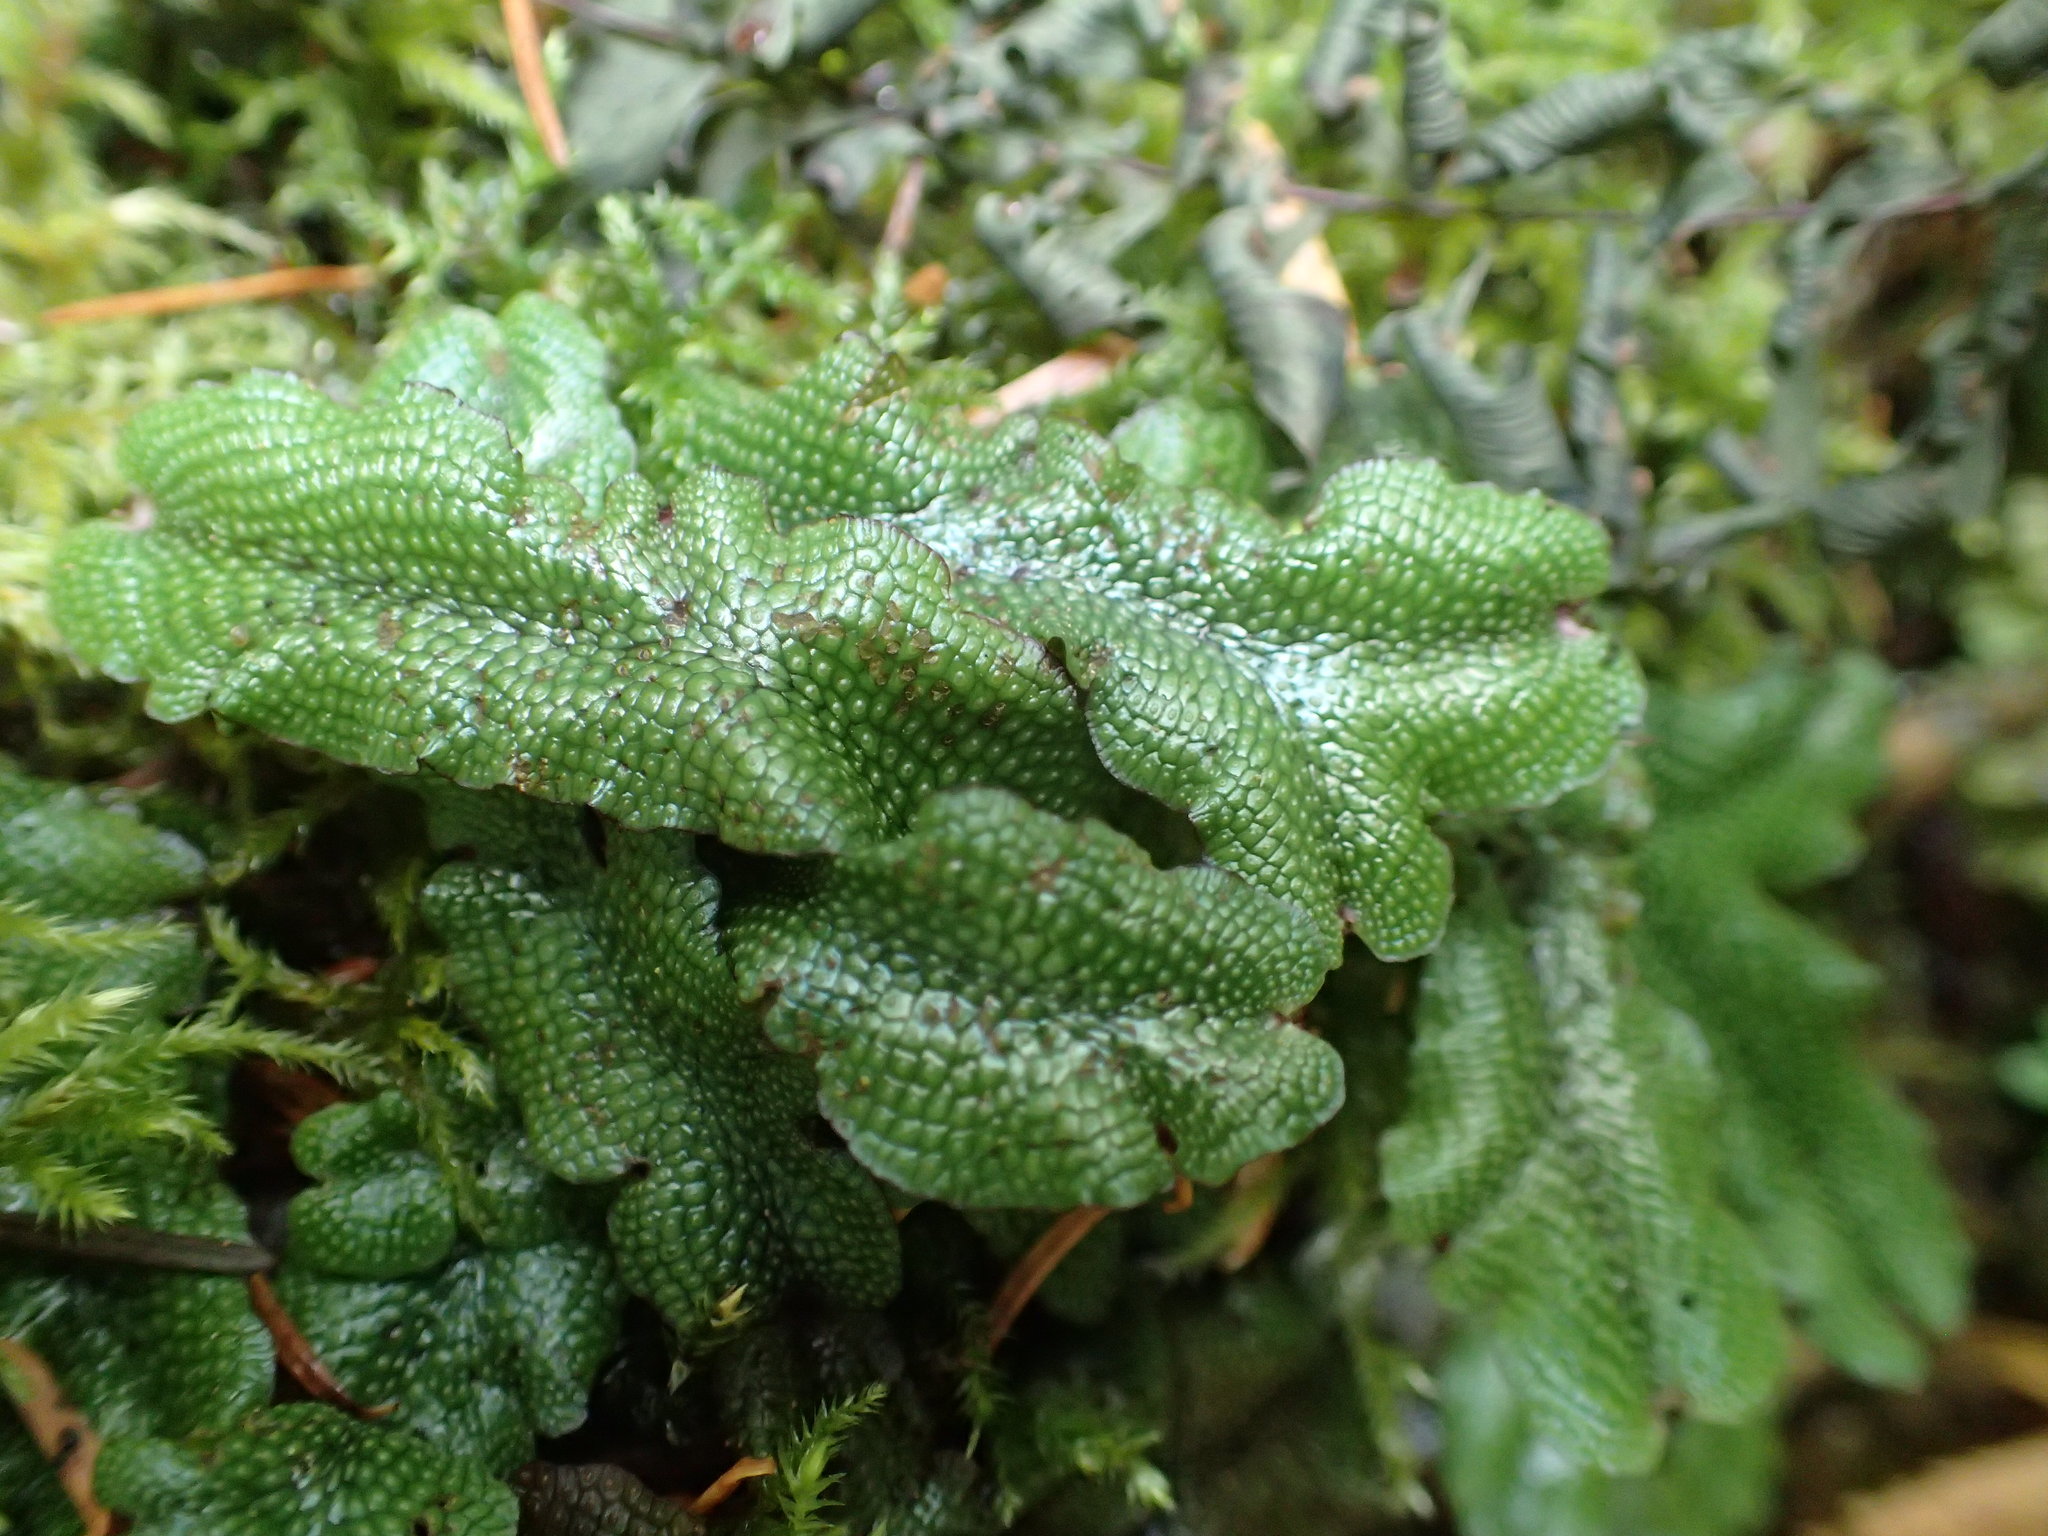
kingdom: Plantae
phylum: Marchantiophyta
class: Marchantiopsida
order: Marchantiales
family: Conocephalaceae
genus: Conocephalum
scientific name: Conocephalum salebrosum
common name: Cat-tongue liverwort
